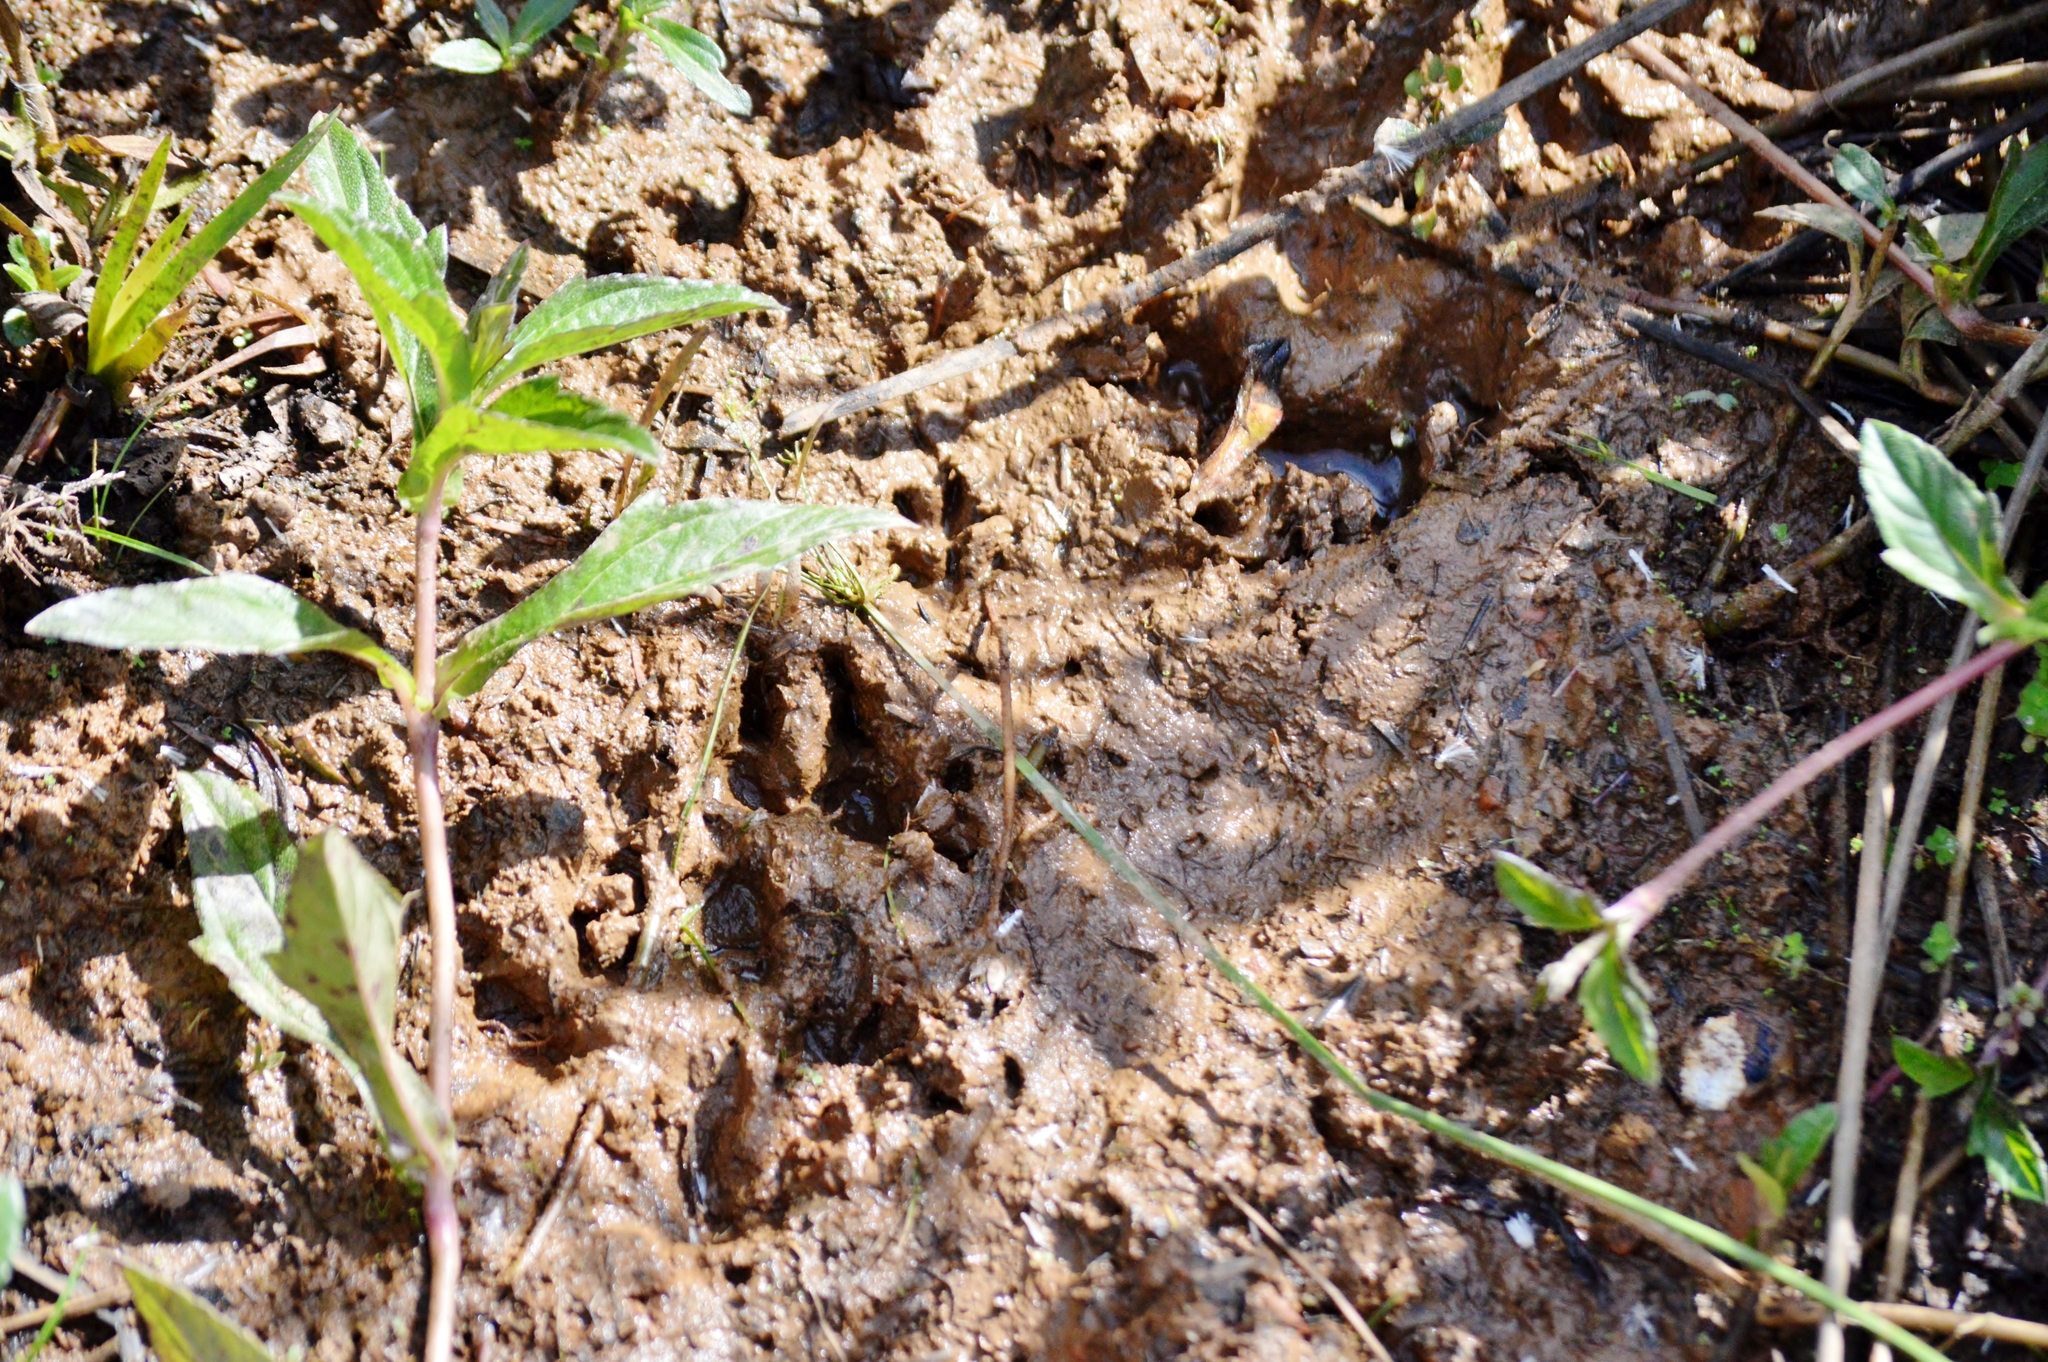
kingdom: Animalia
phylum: Chordata
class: Mammalia
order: Rodentia
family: Caviidae
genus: Hydrochoerus
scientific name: Hydrochoerus hydrochaeris
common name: Capybara
